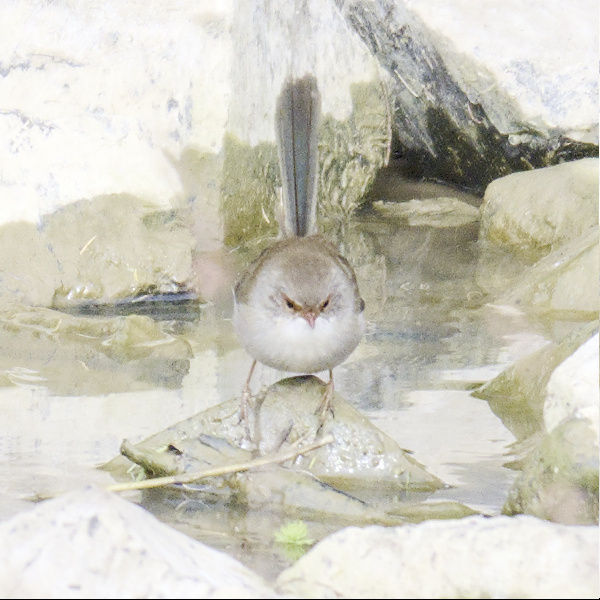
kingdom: Animalia
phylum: Chordata
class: Aves
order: Passeriformes
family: Maluridae
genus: Malurus
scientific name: Malurus cyaneus
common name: Superb fairywren
